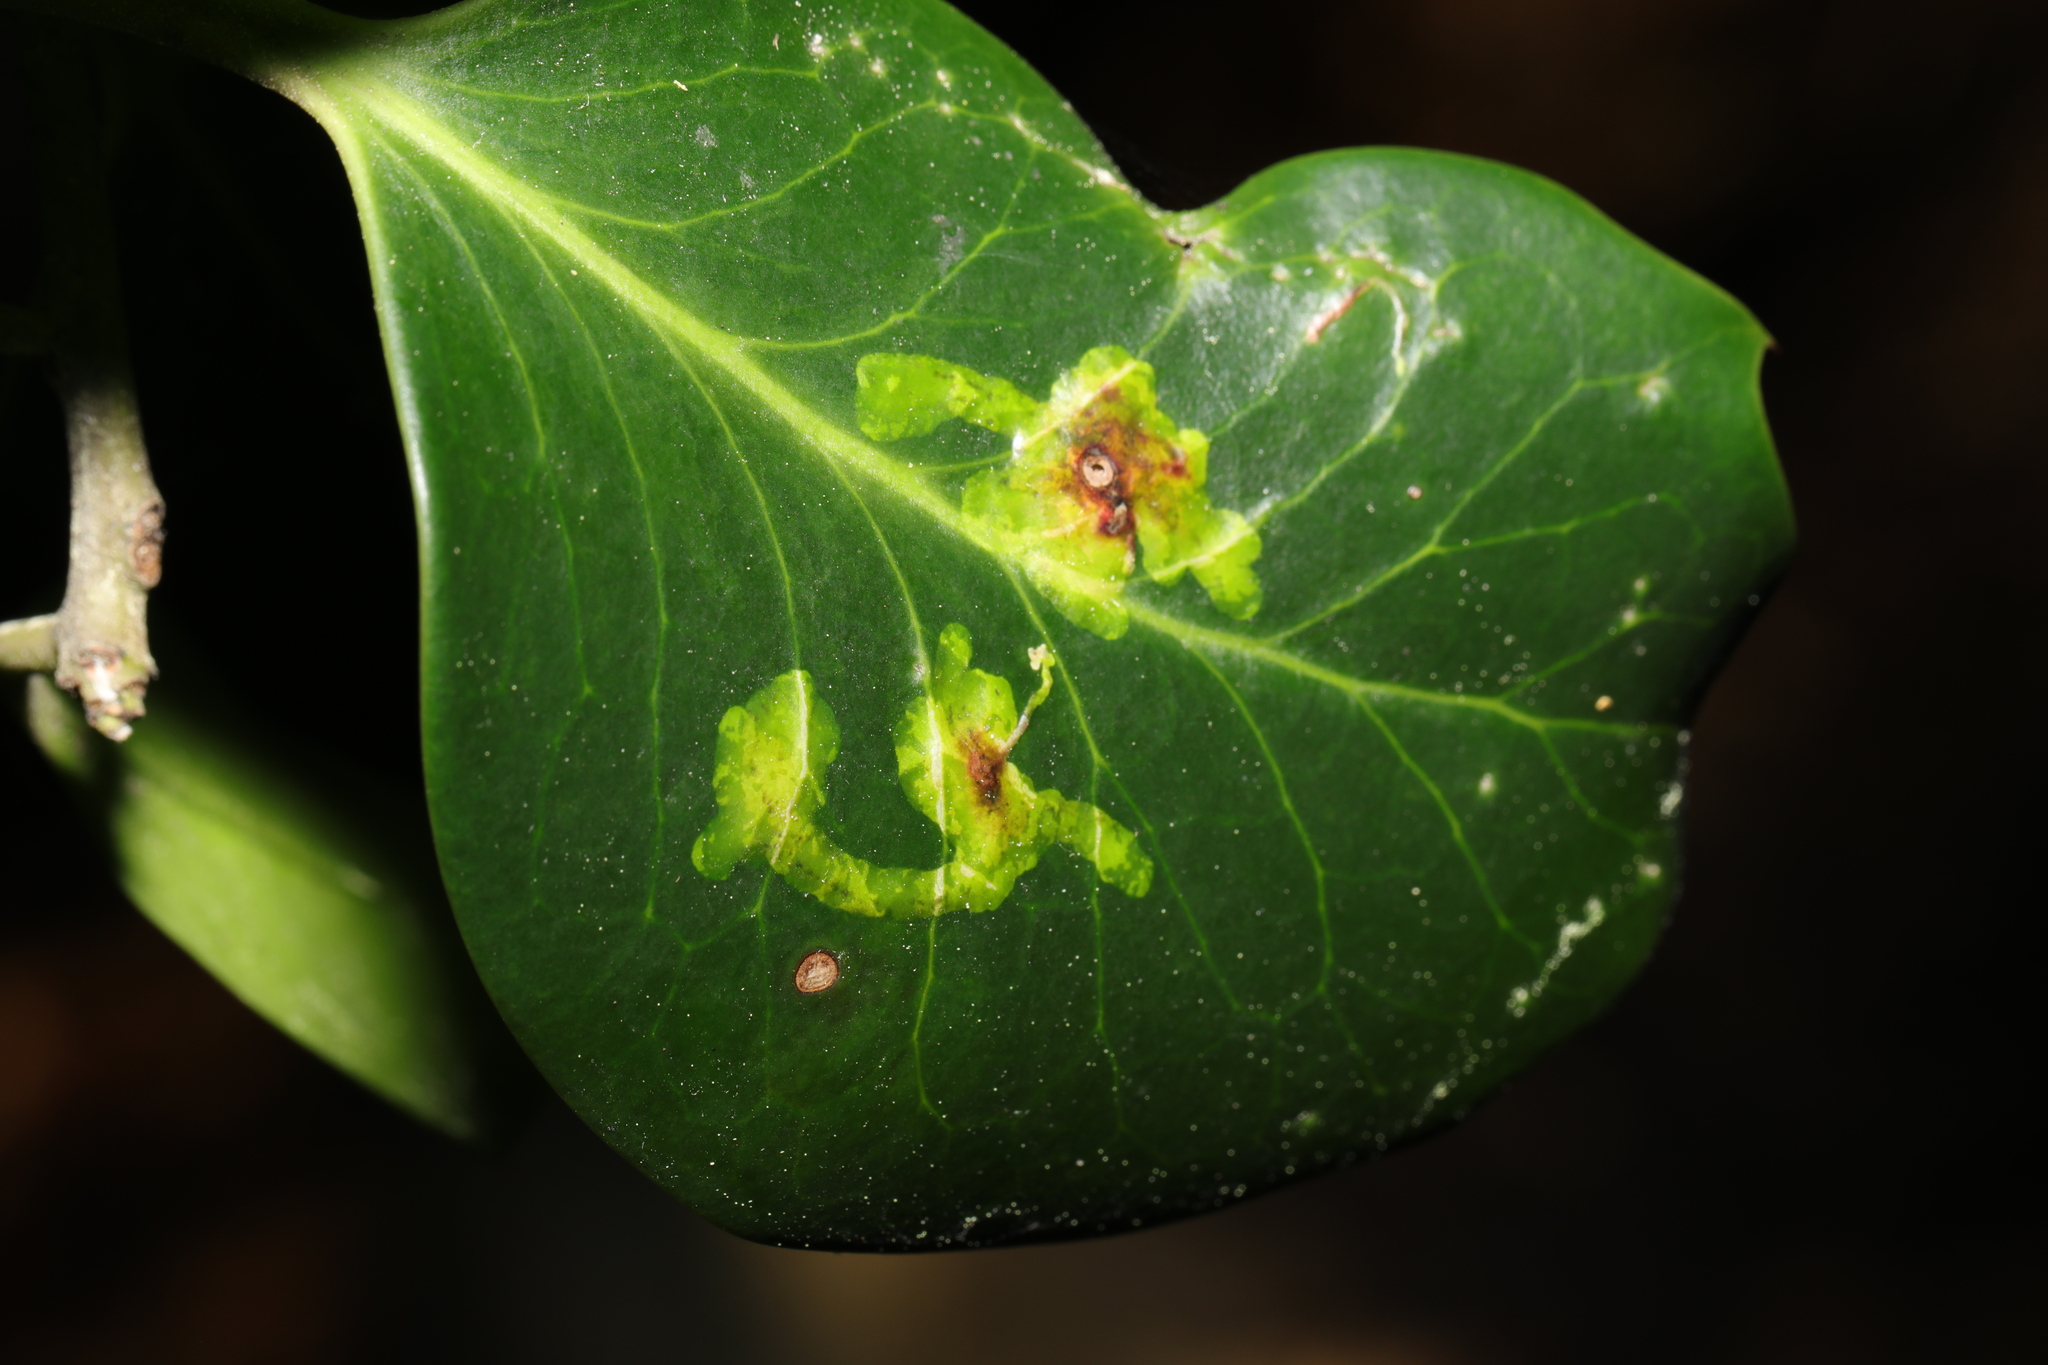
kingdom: Animalia
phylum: Arthropoda
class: Insecta
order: Diptera
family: Agromyzidae
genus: Phytomyza
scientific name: Phytomyza ilicis
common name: Holly leafminer
